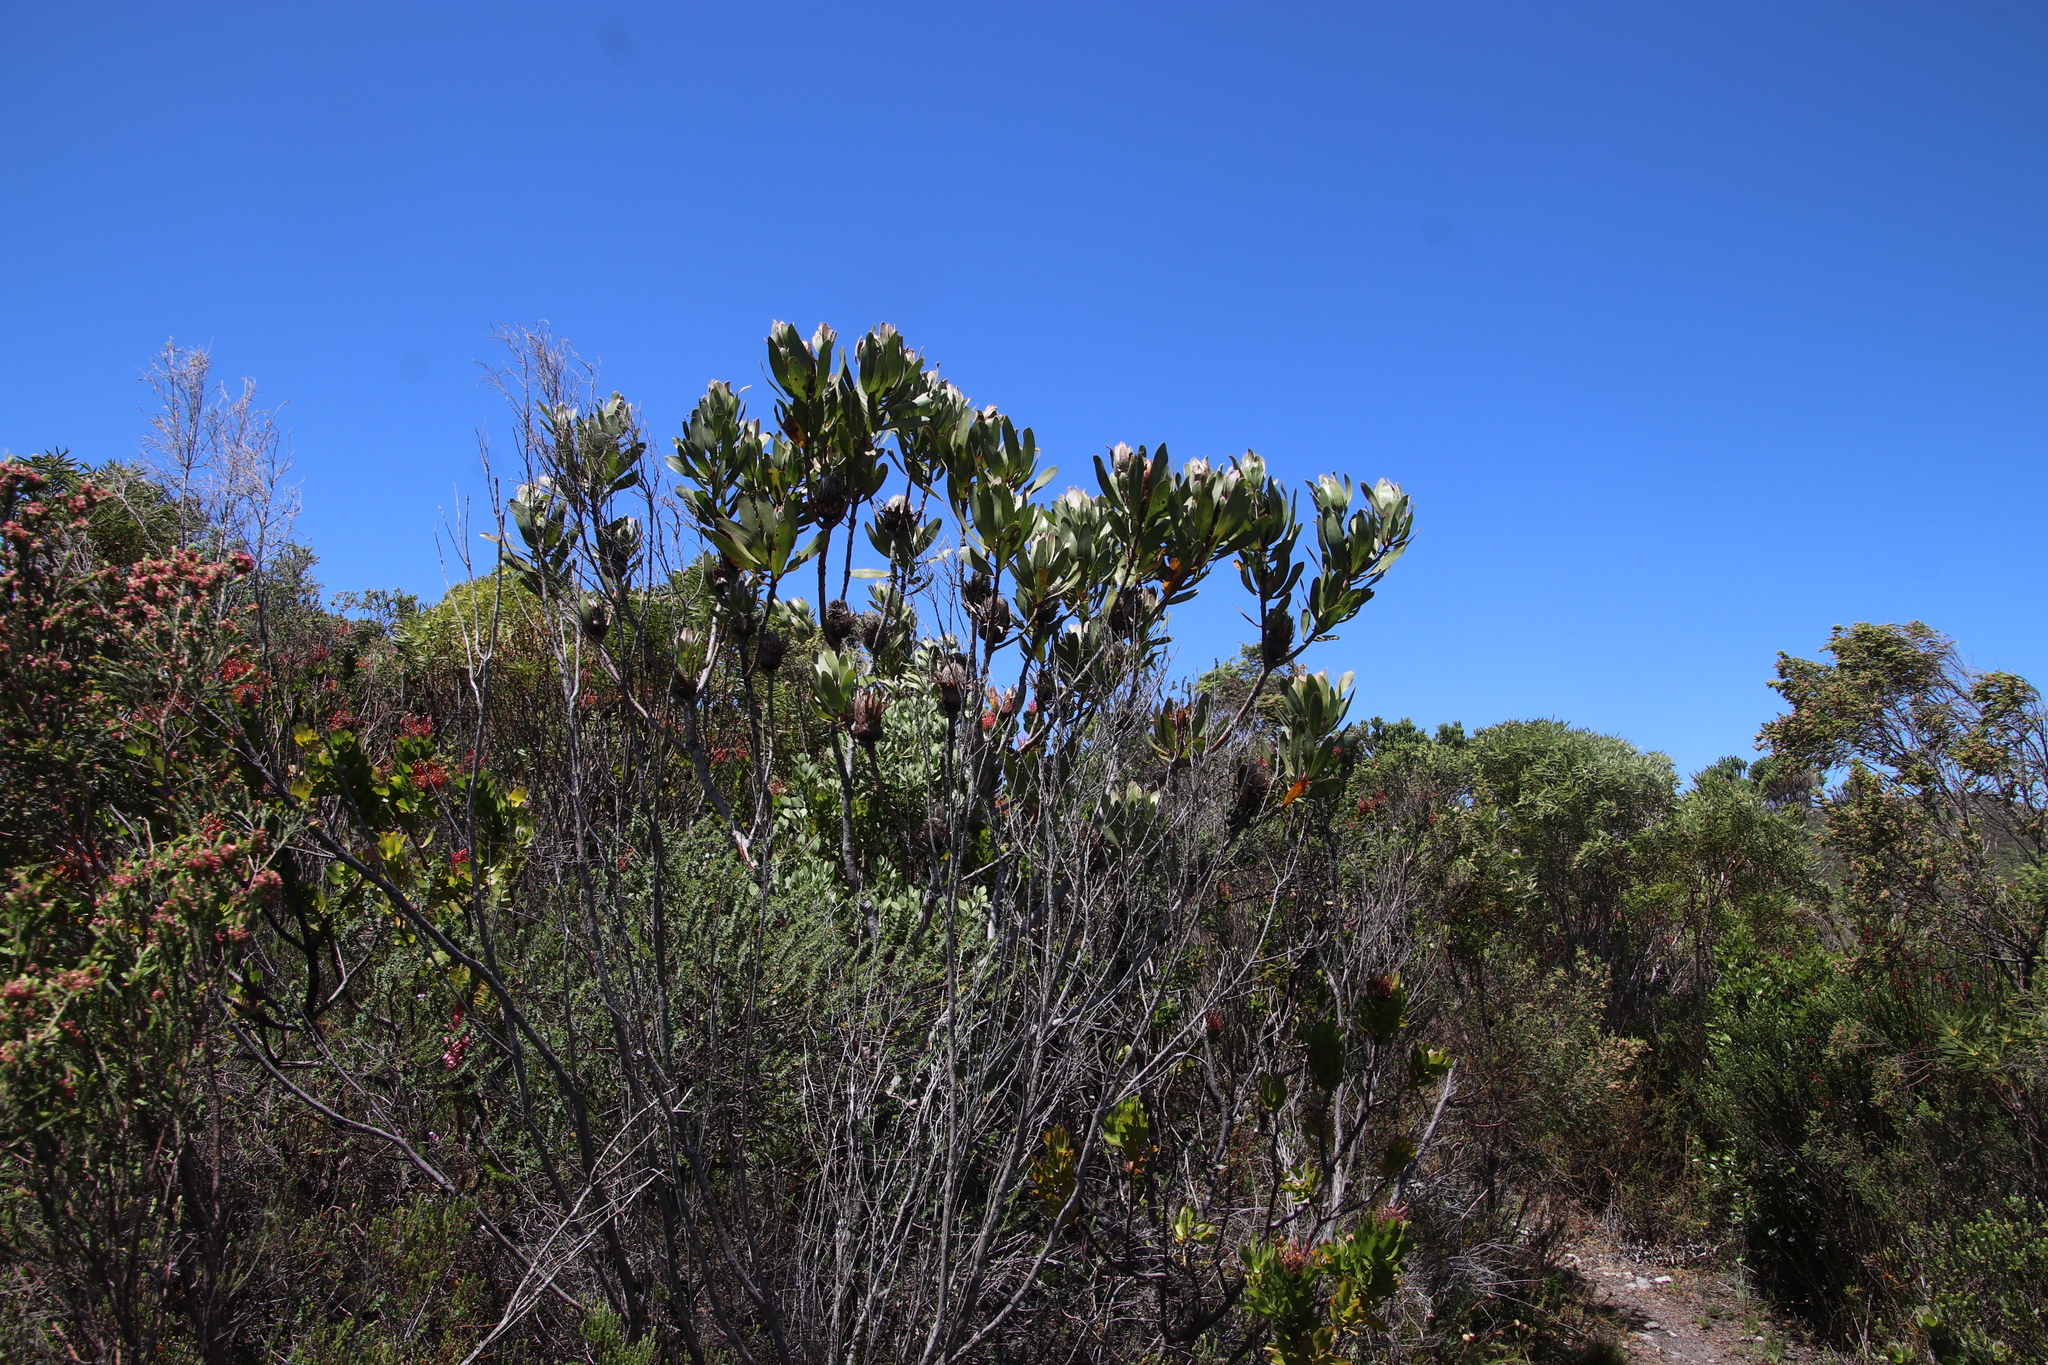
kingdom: Plantae
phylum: Tracheophyta
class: Magnoliopsida
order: Proteales
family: Proteaceae
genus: Protea
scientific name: Protea obtusifolia
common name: Bredasdorp sugarbush
